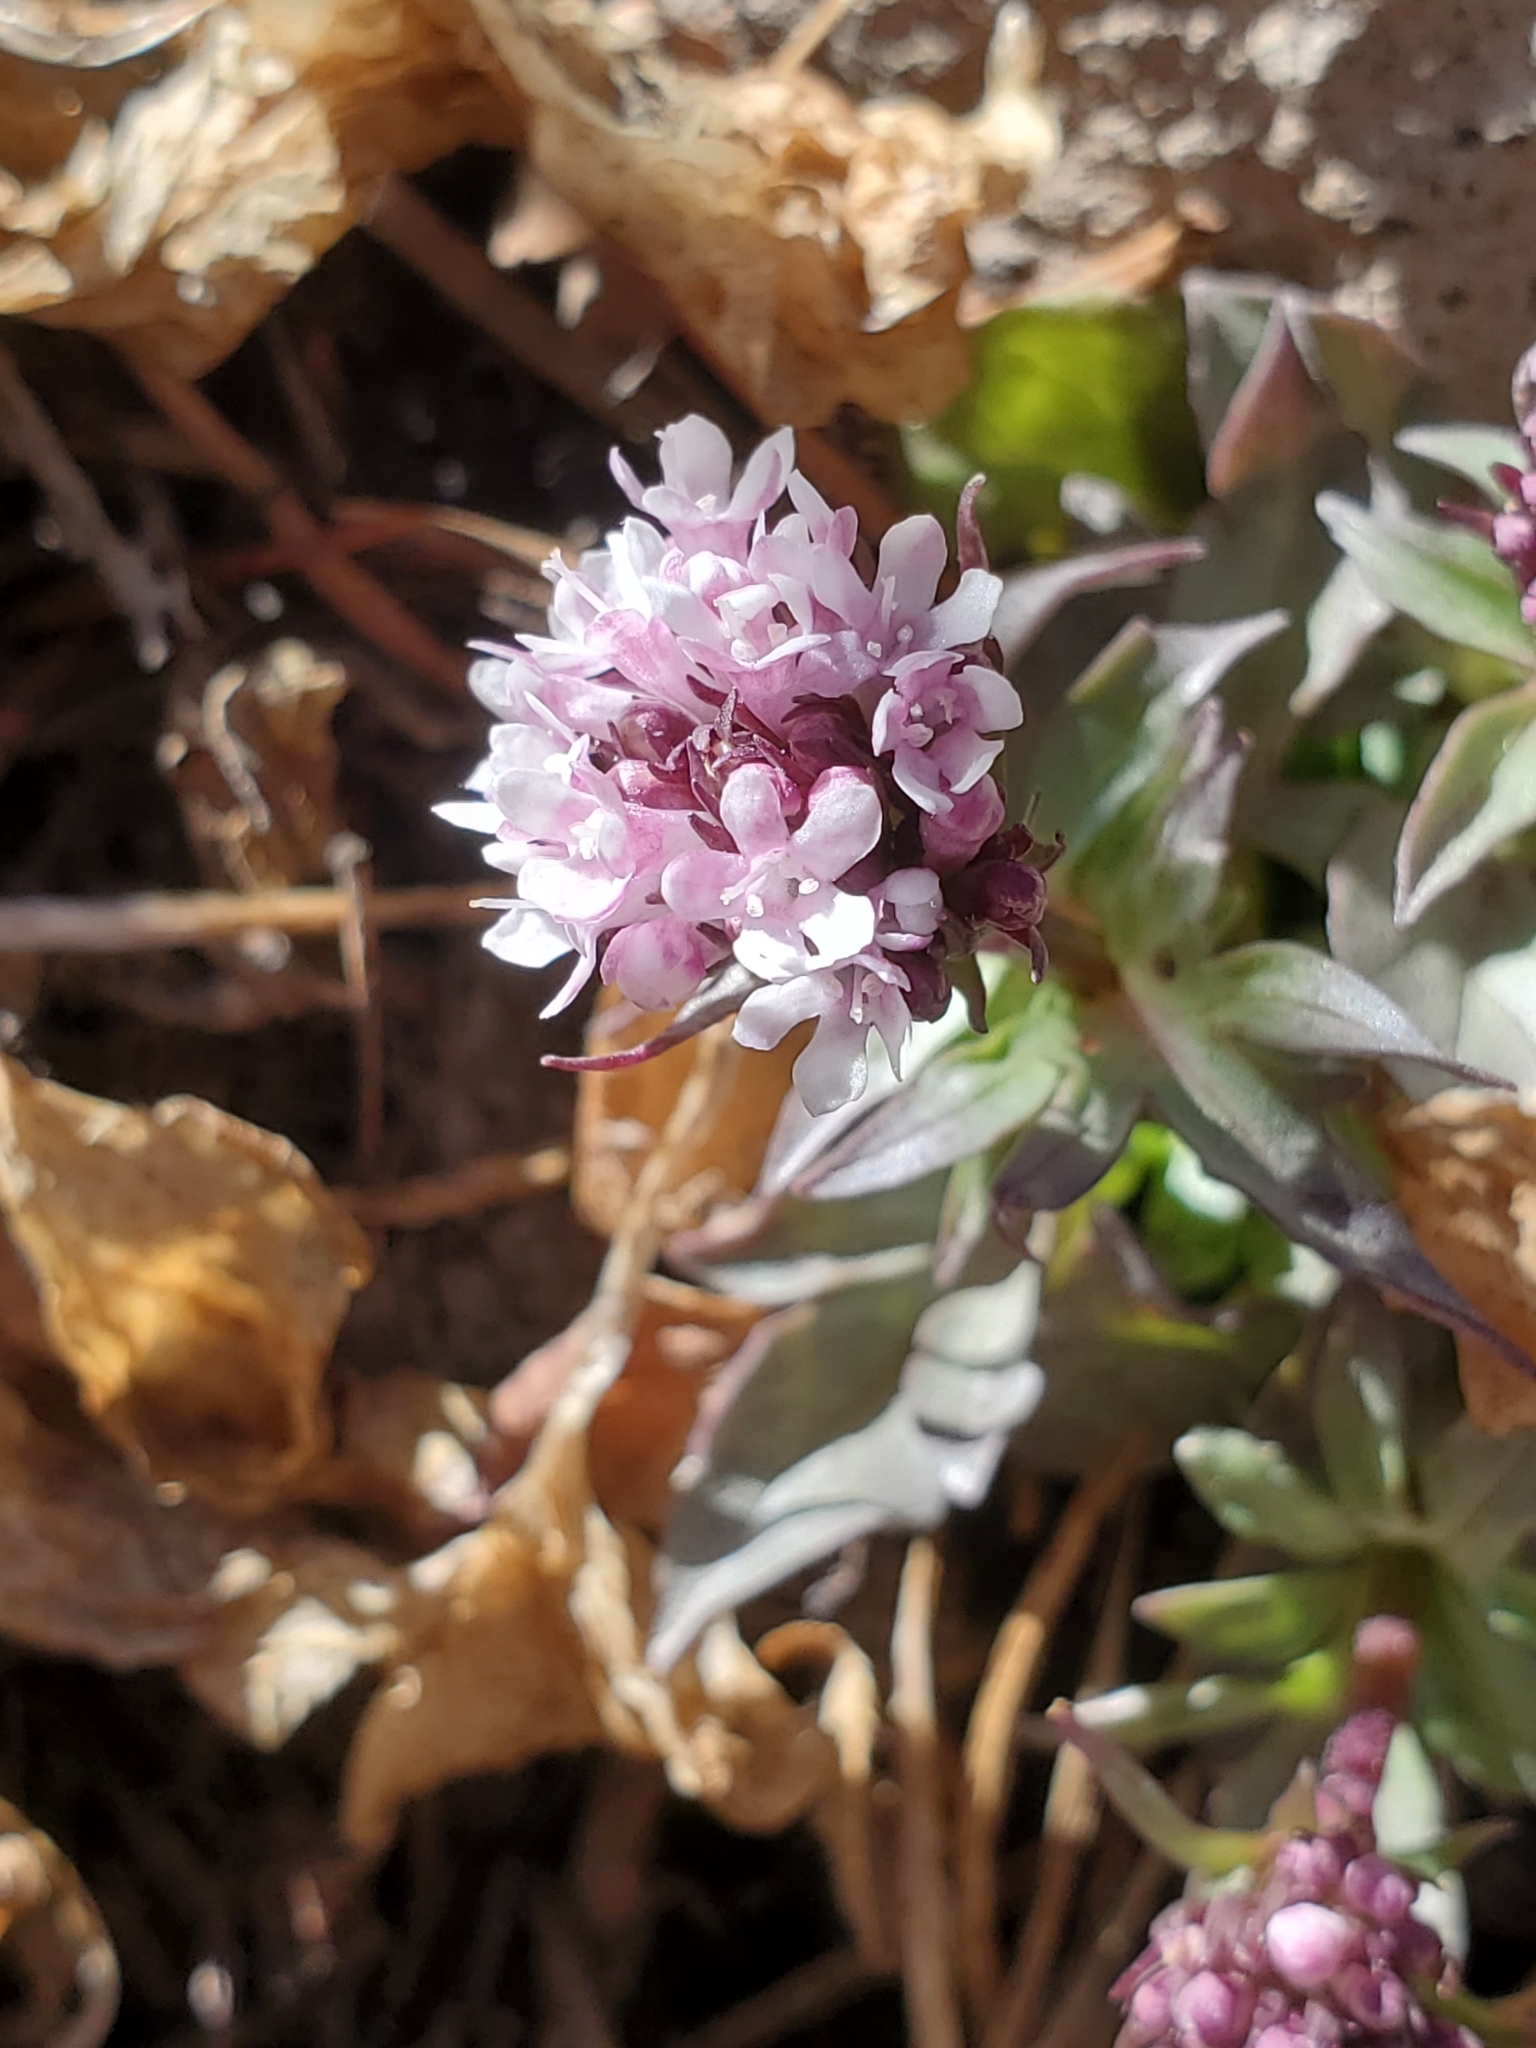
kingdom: Plantae
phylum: Tracheophyta
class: Magnoliopsida
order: Dipsacales
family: Caprifoliaceae
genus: Valeriana
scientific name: Valeriana arizonica
